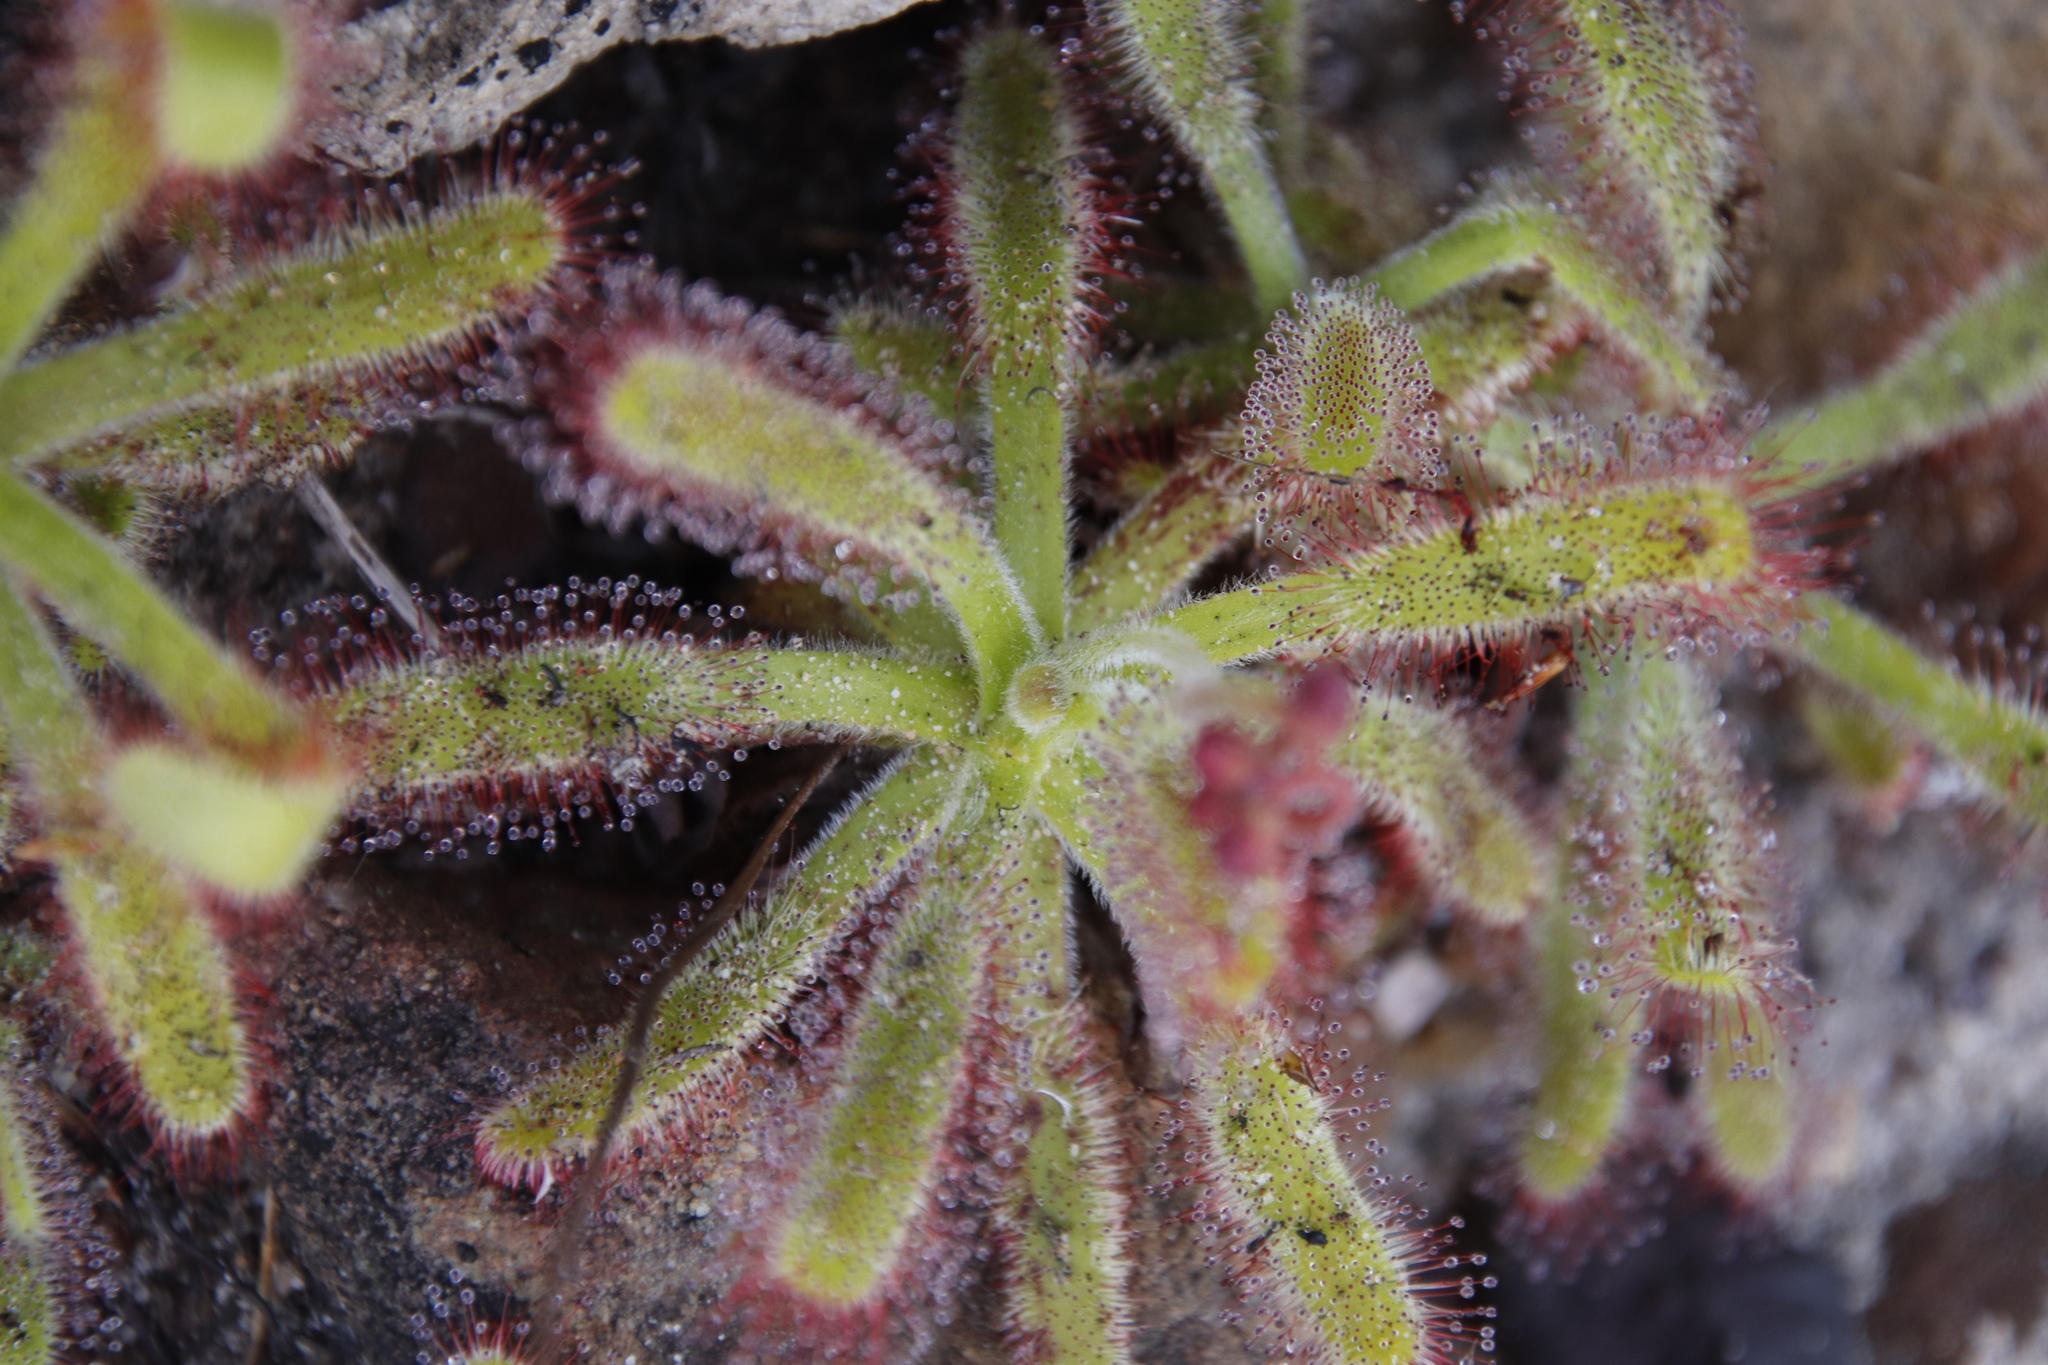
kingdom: Plantae
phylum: Tracheophyta
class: Magnoliopsida
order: Caryophyllales
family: Droseraceae
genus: Drosera
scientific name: Drosera hilaris
